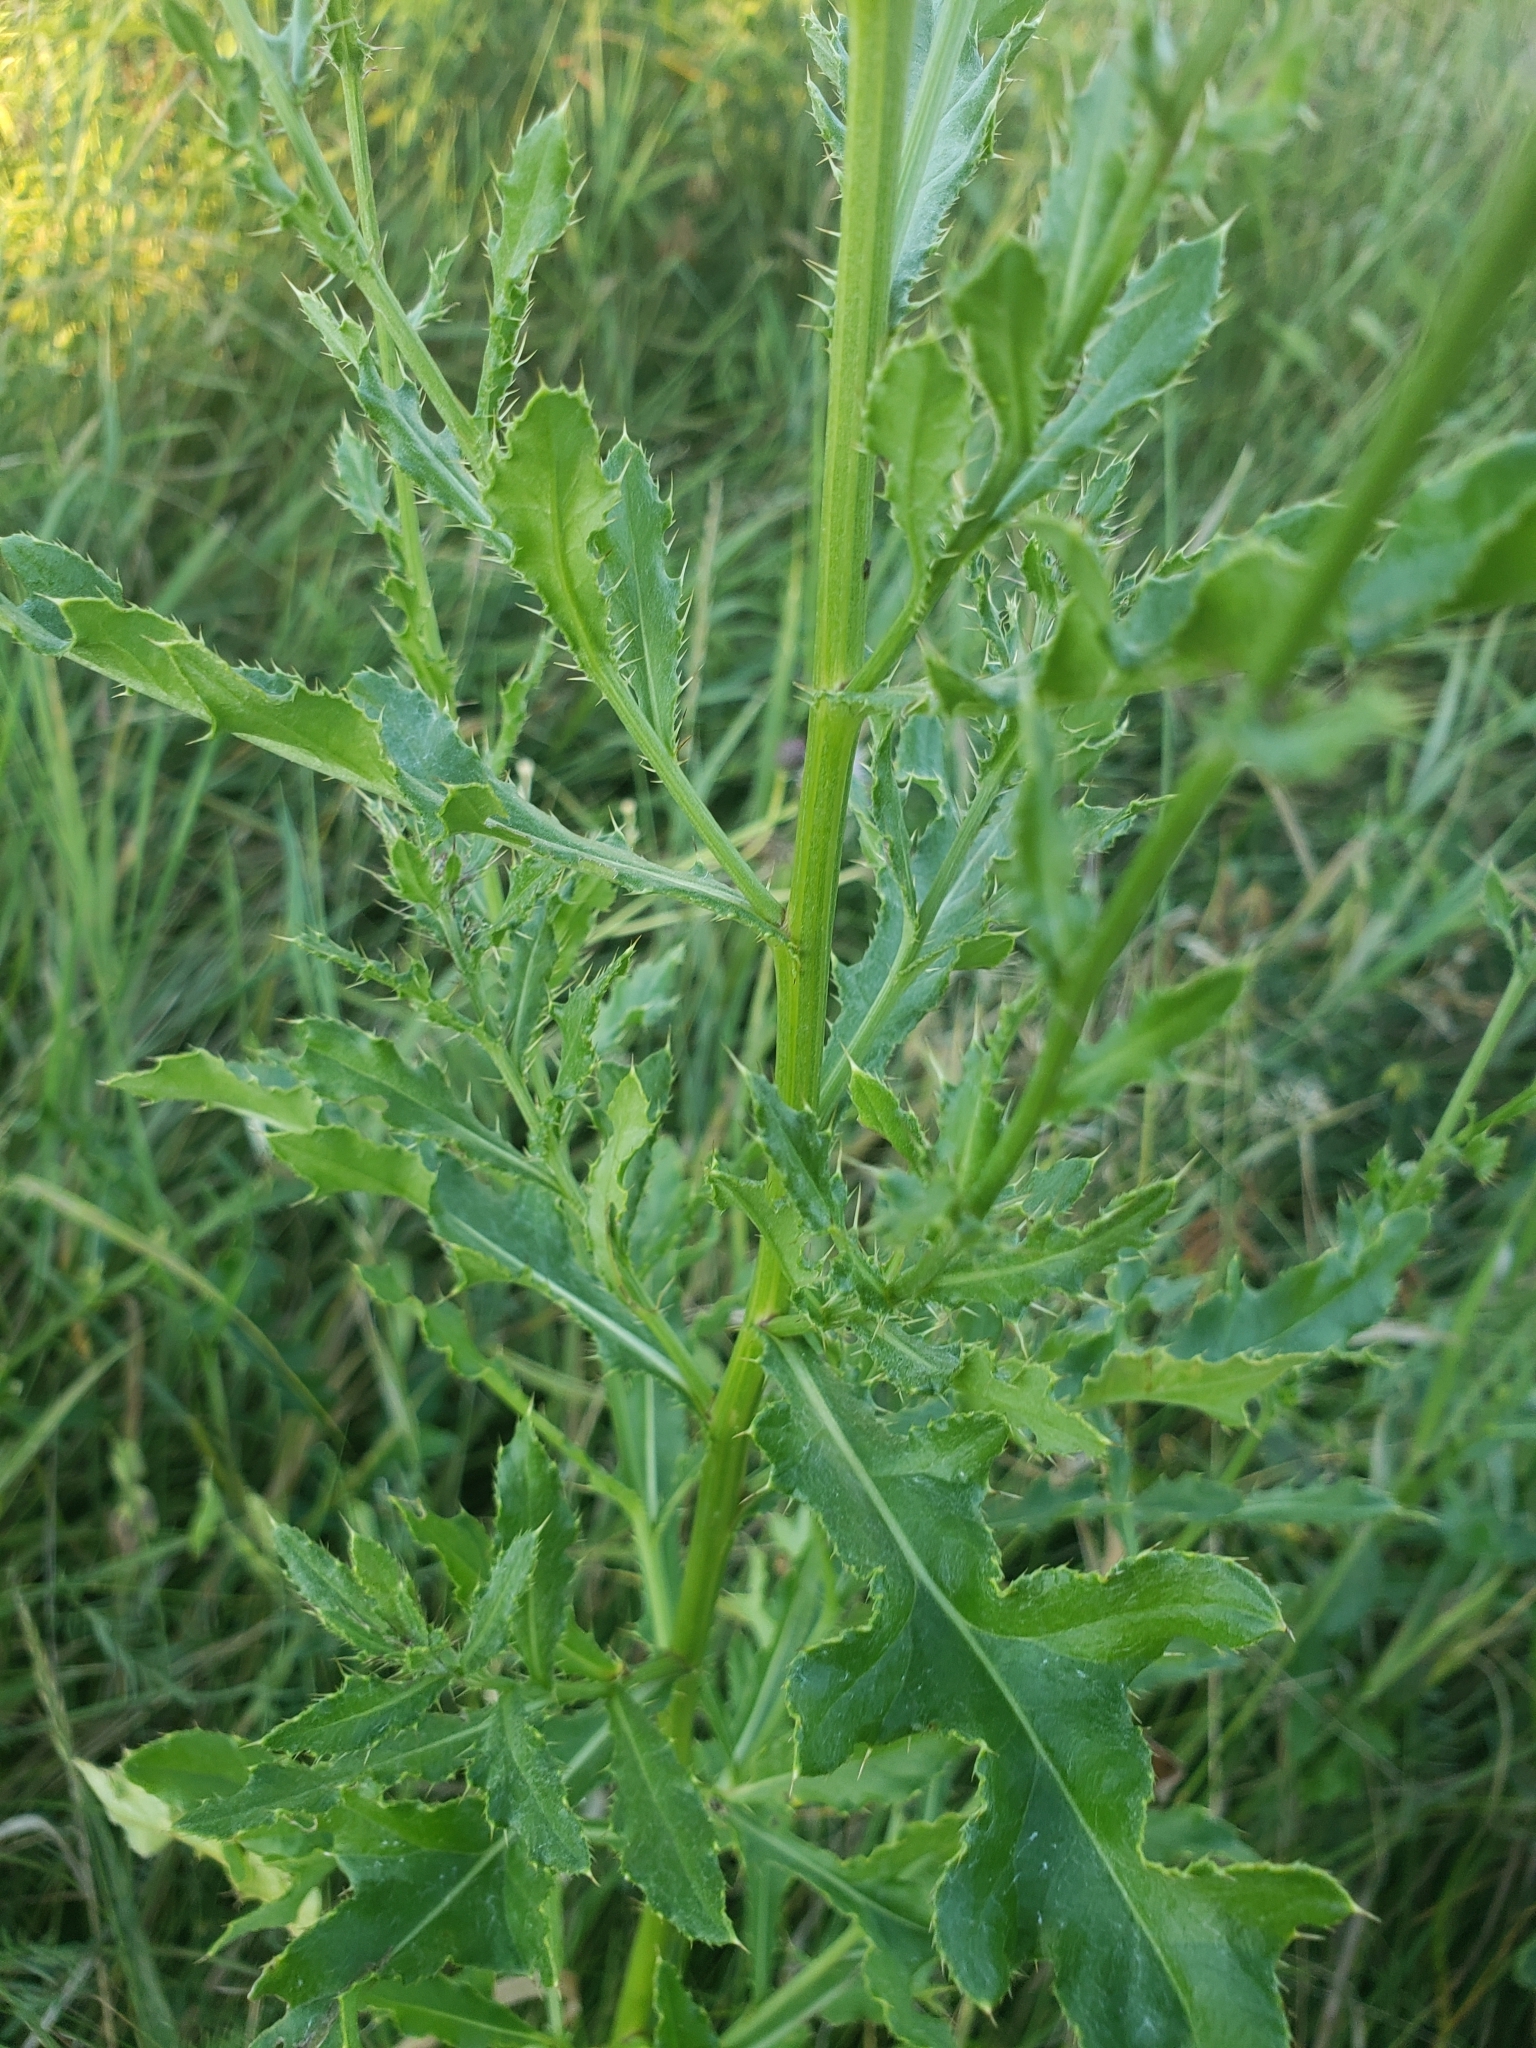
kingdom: Plantae
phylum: Tracheophyta
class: Magnoliopsida
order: Asterales
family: Asteraceae
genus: Cirsium
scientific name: Cirsium arvense
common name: Creeping thistle
